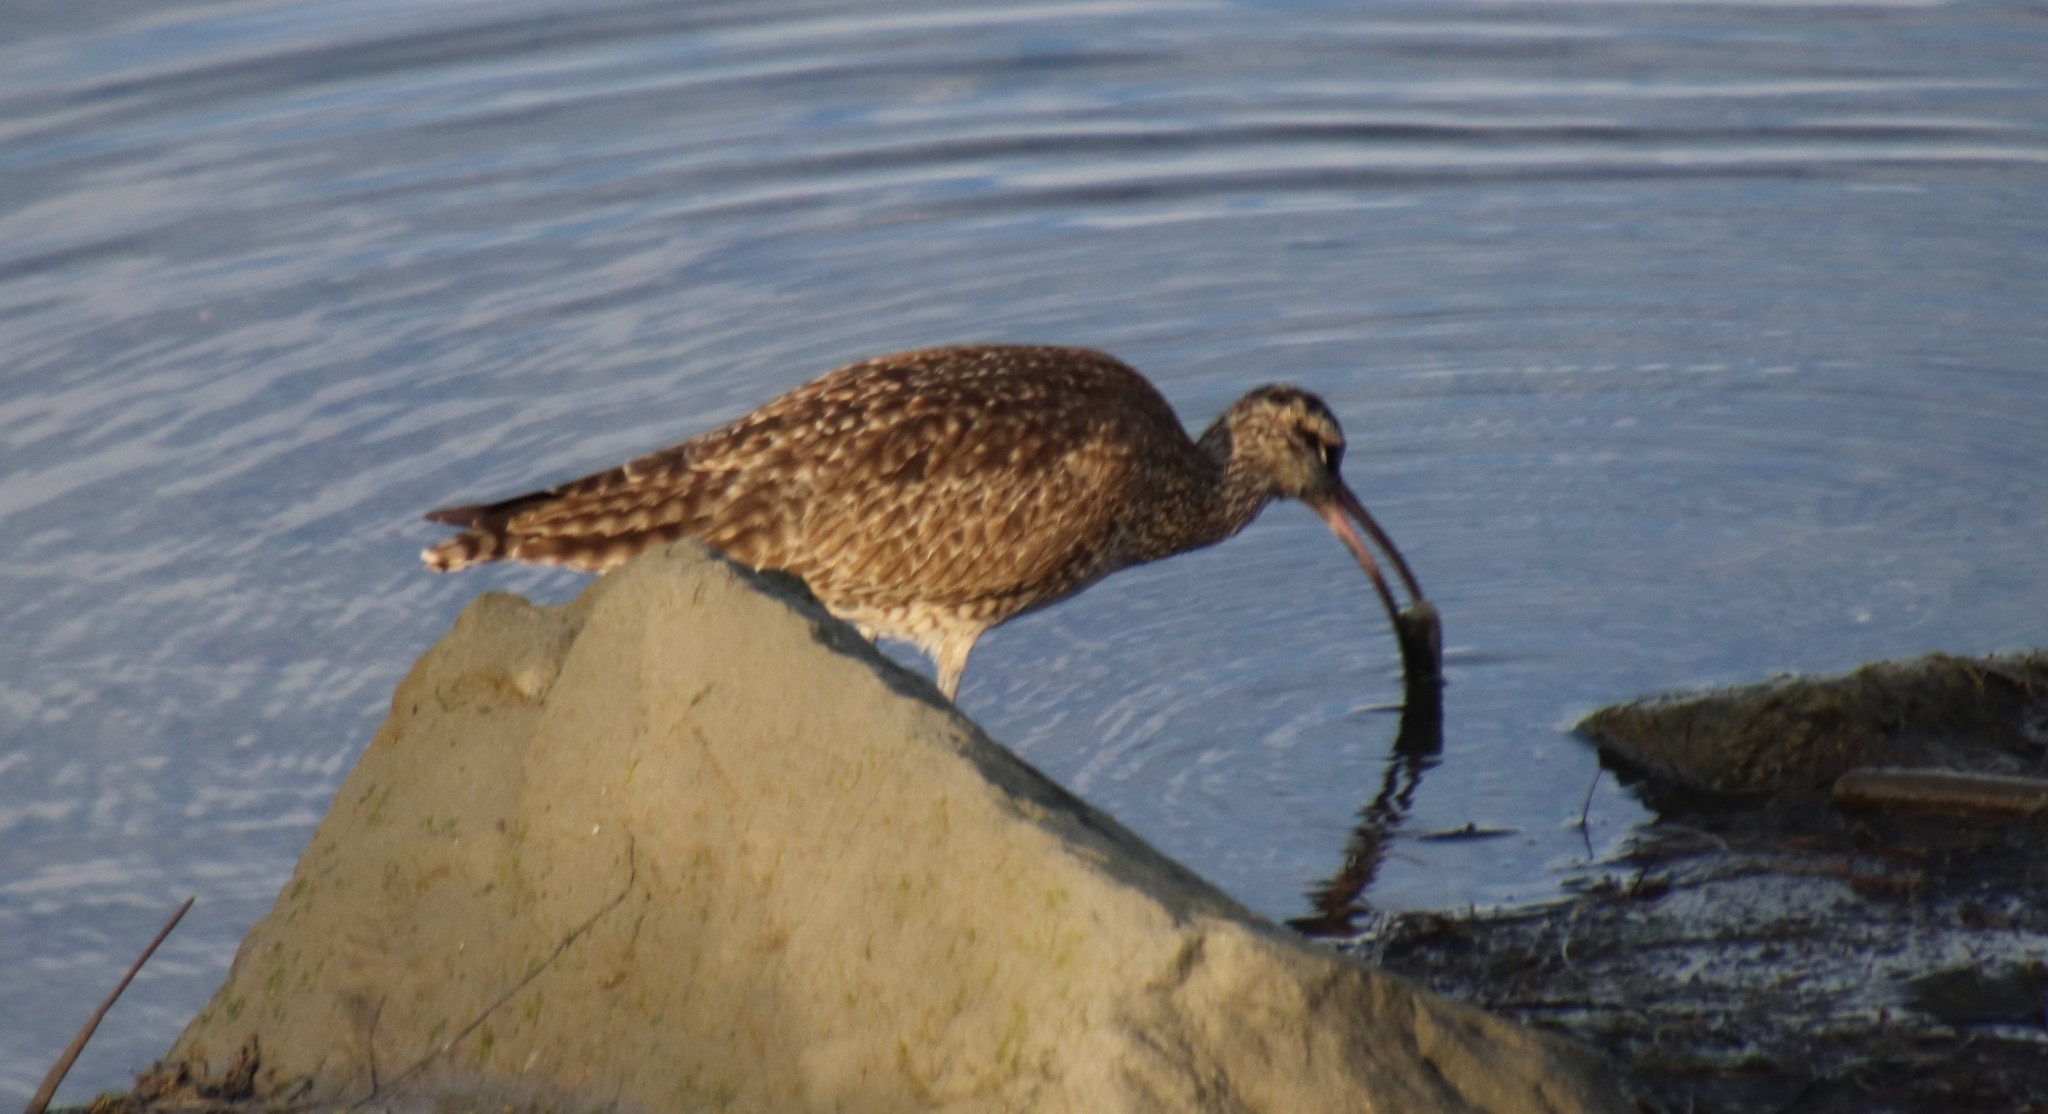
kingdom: Animalia
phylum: Chordata
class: Aves
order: Charadriiformes
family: Scolopacidae
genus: Numenius
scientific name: Numenius phaeopus
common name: Whimbrel
